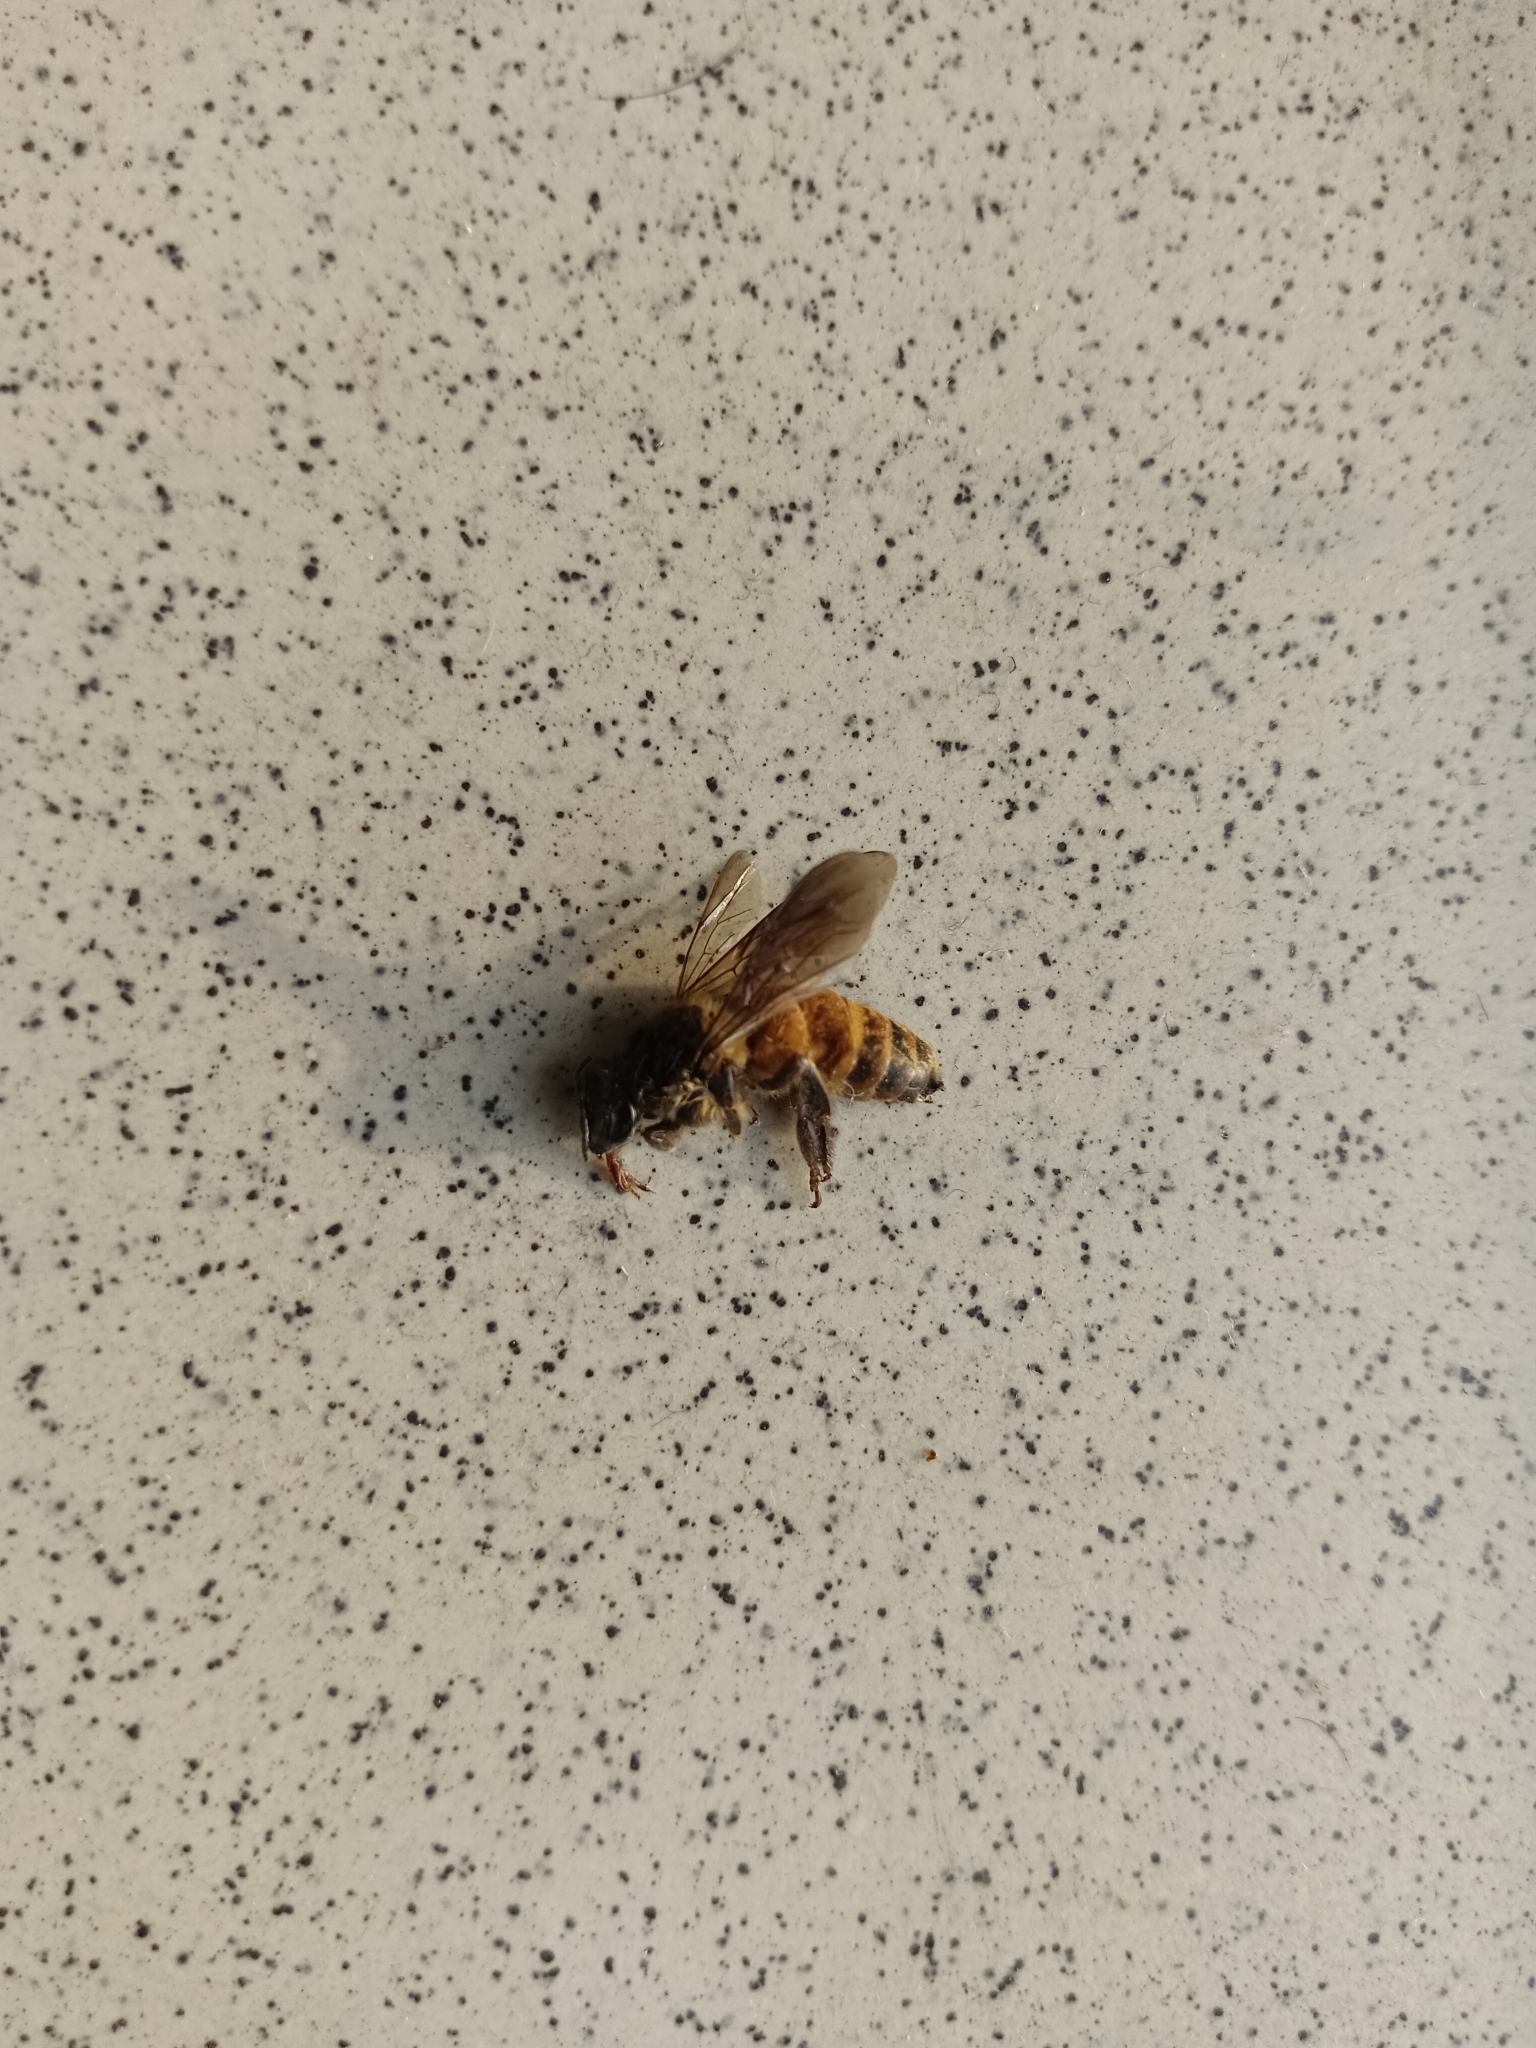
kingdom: Animalia
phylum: Arthropoda
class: Insecta
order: Hymenoptera
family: Apidae
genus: Apis
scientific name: Apis dorsata
